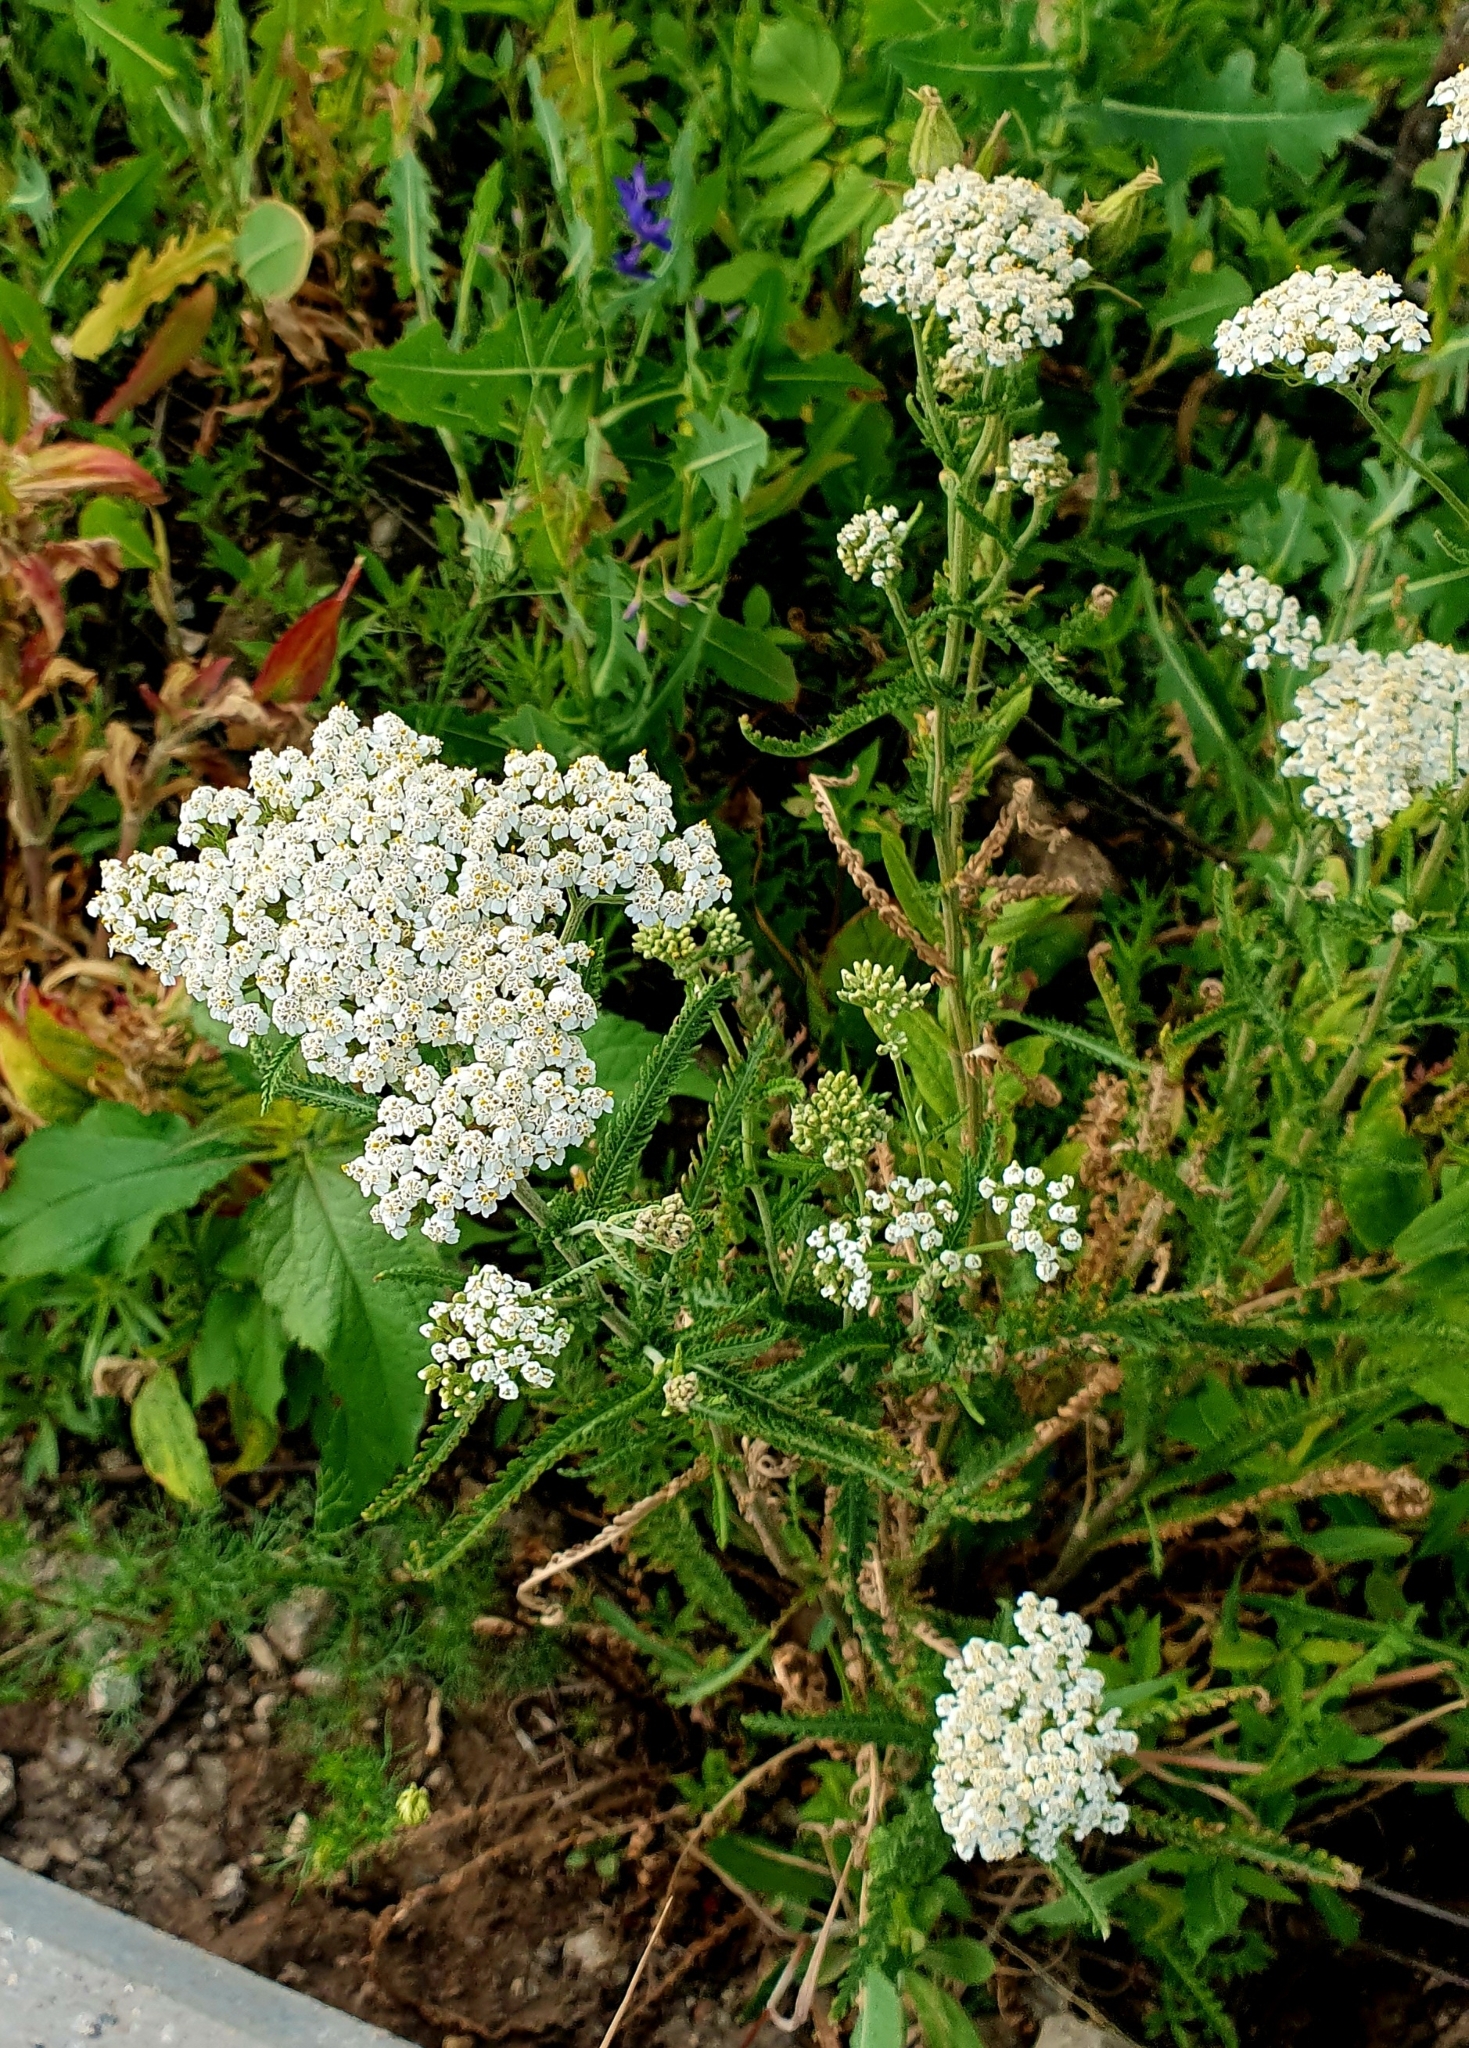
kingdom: Plantae
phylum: Tracheophyta
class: Magnoliopsida
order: Asterales
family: Asteraceae
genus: Achillea
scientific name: Achillea millefolium
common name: Yarrow
